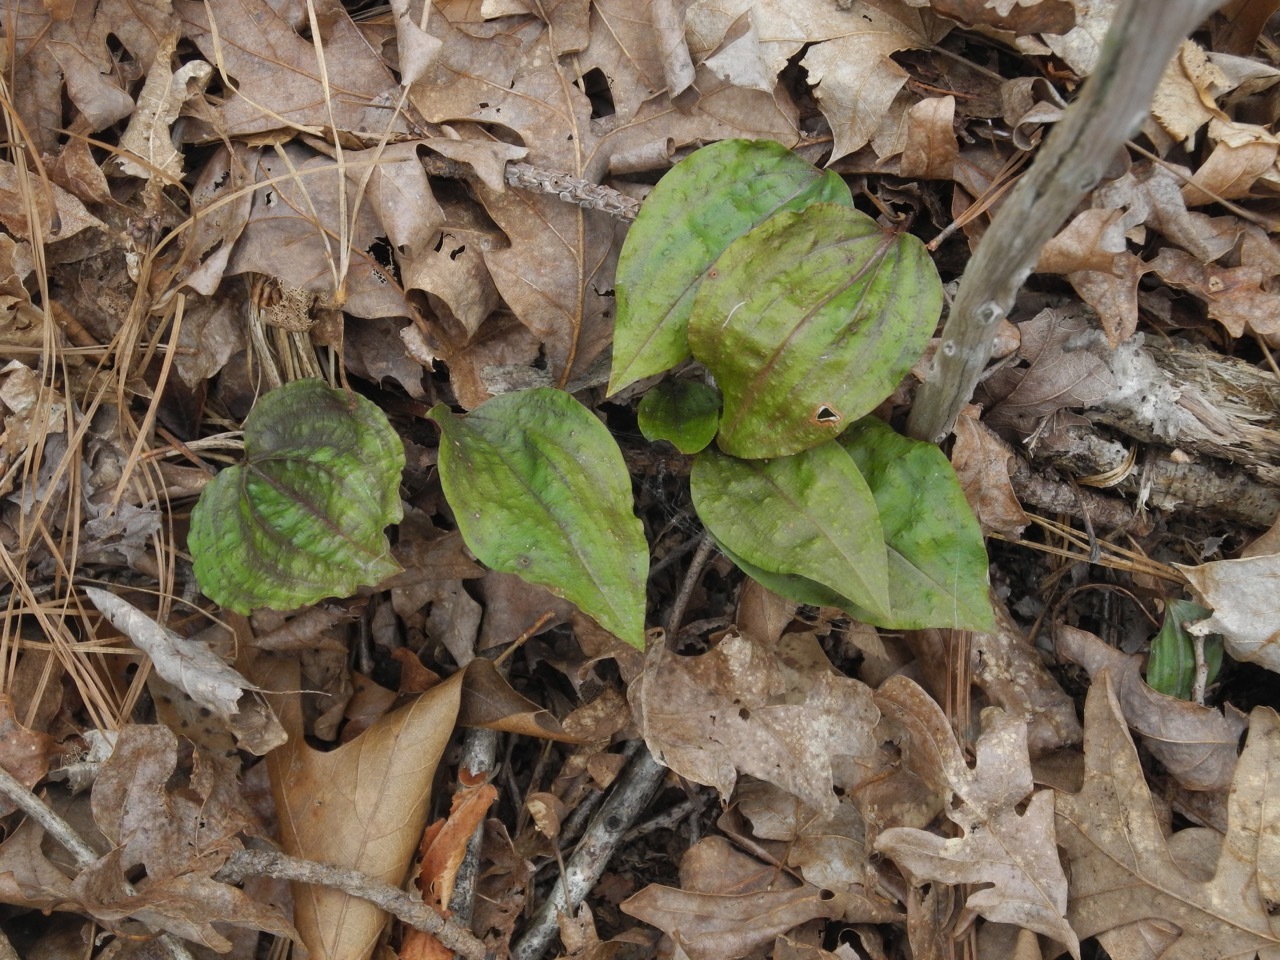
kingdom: Plantae
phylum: Tracheophyta
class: Liliopsida
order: Asparagales
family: Orchidaceae
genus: Tipularia
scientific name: Tipularia discolor
